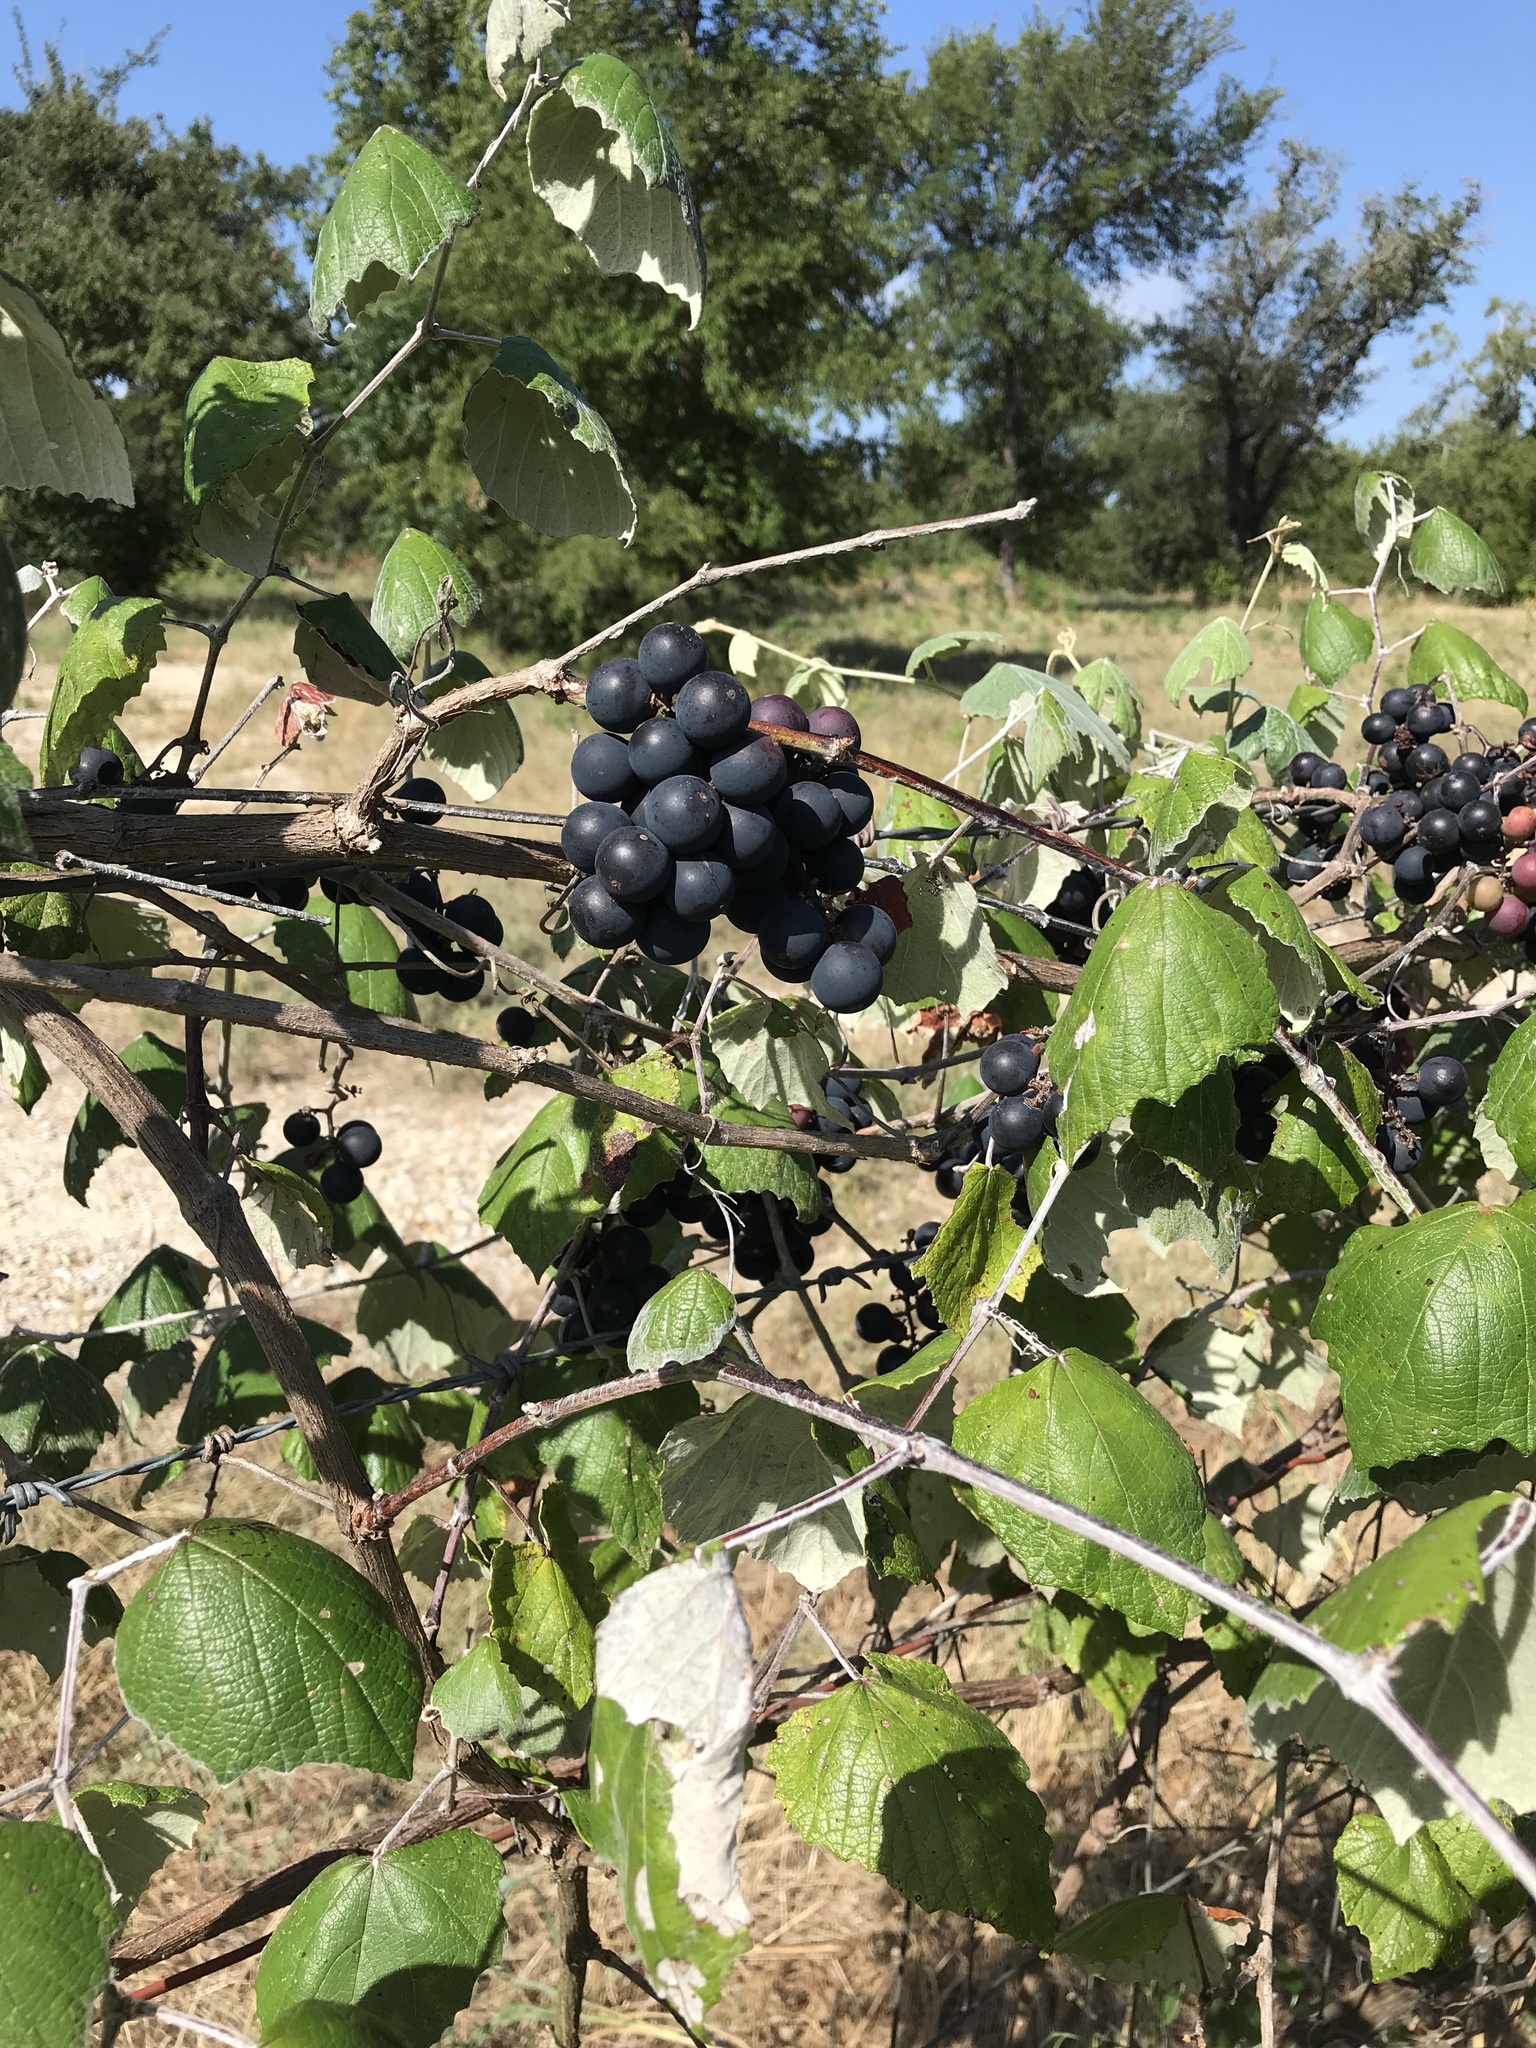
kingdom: Plantae
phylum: Tracheophyta
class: Magnoliopsida
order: Vitales
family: Vitaceae
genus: Vitis
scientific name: Vitis mustangensis
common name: Mustang grape
